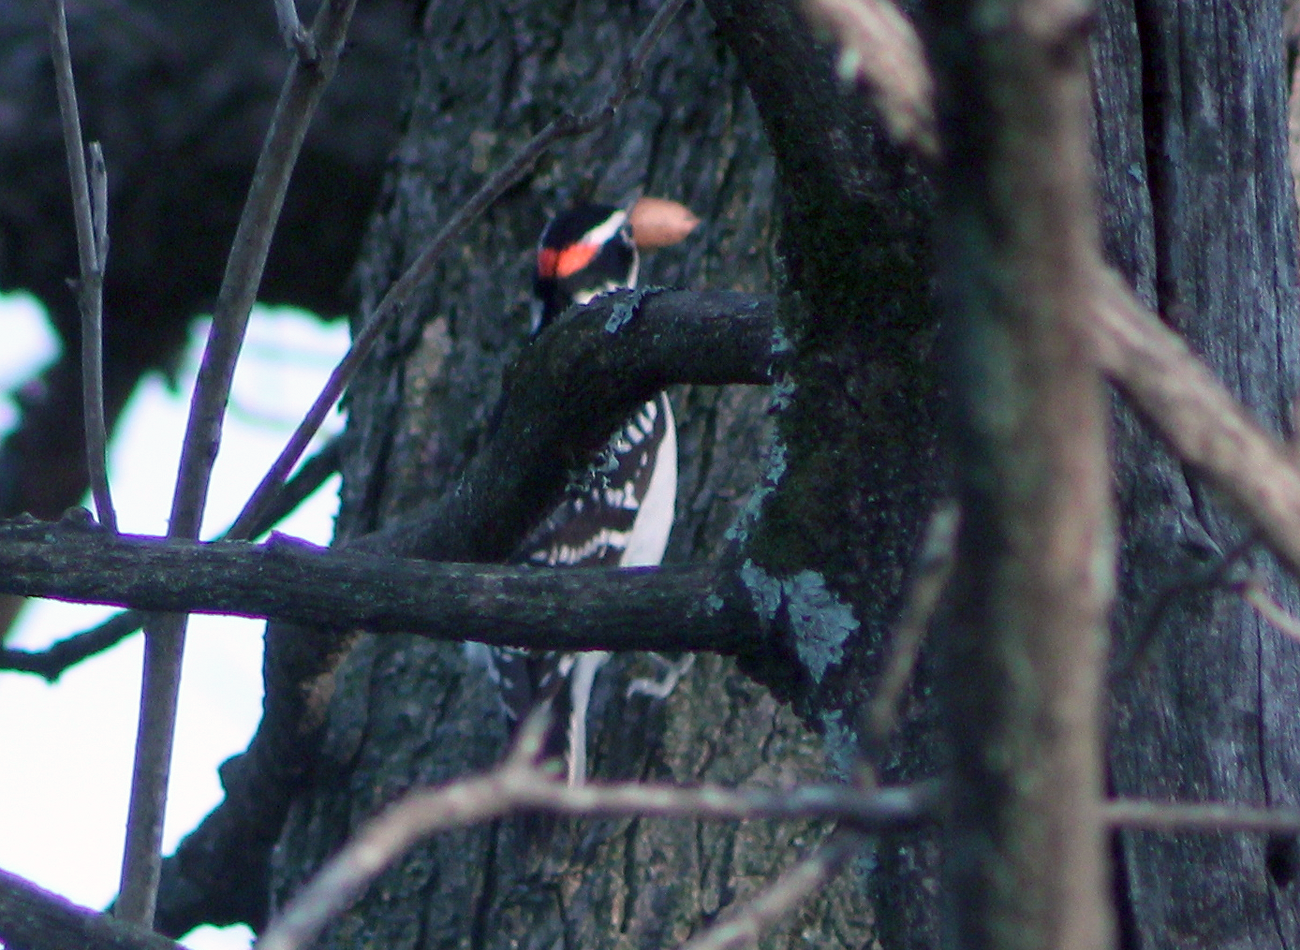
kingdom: Animalia
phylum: Chordata
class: Aves
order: Piciformes
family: Picidae
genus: Leuconotopicus
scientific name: Leuconotopicus villosus
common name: Hairy woodpecker
